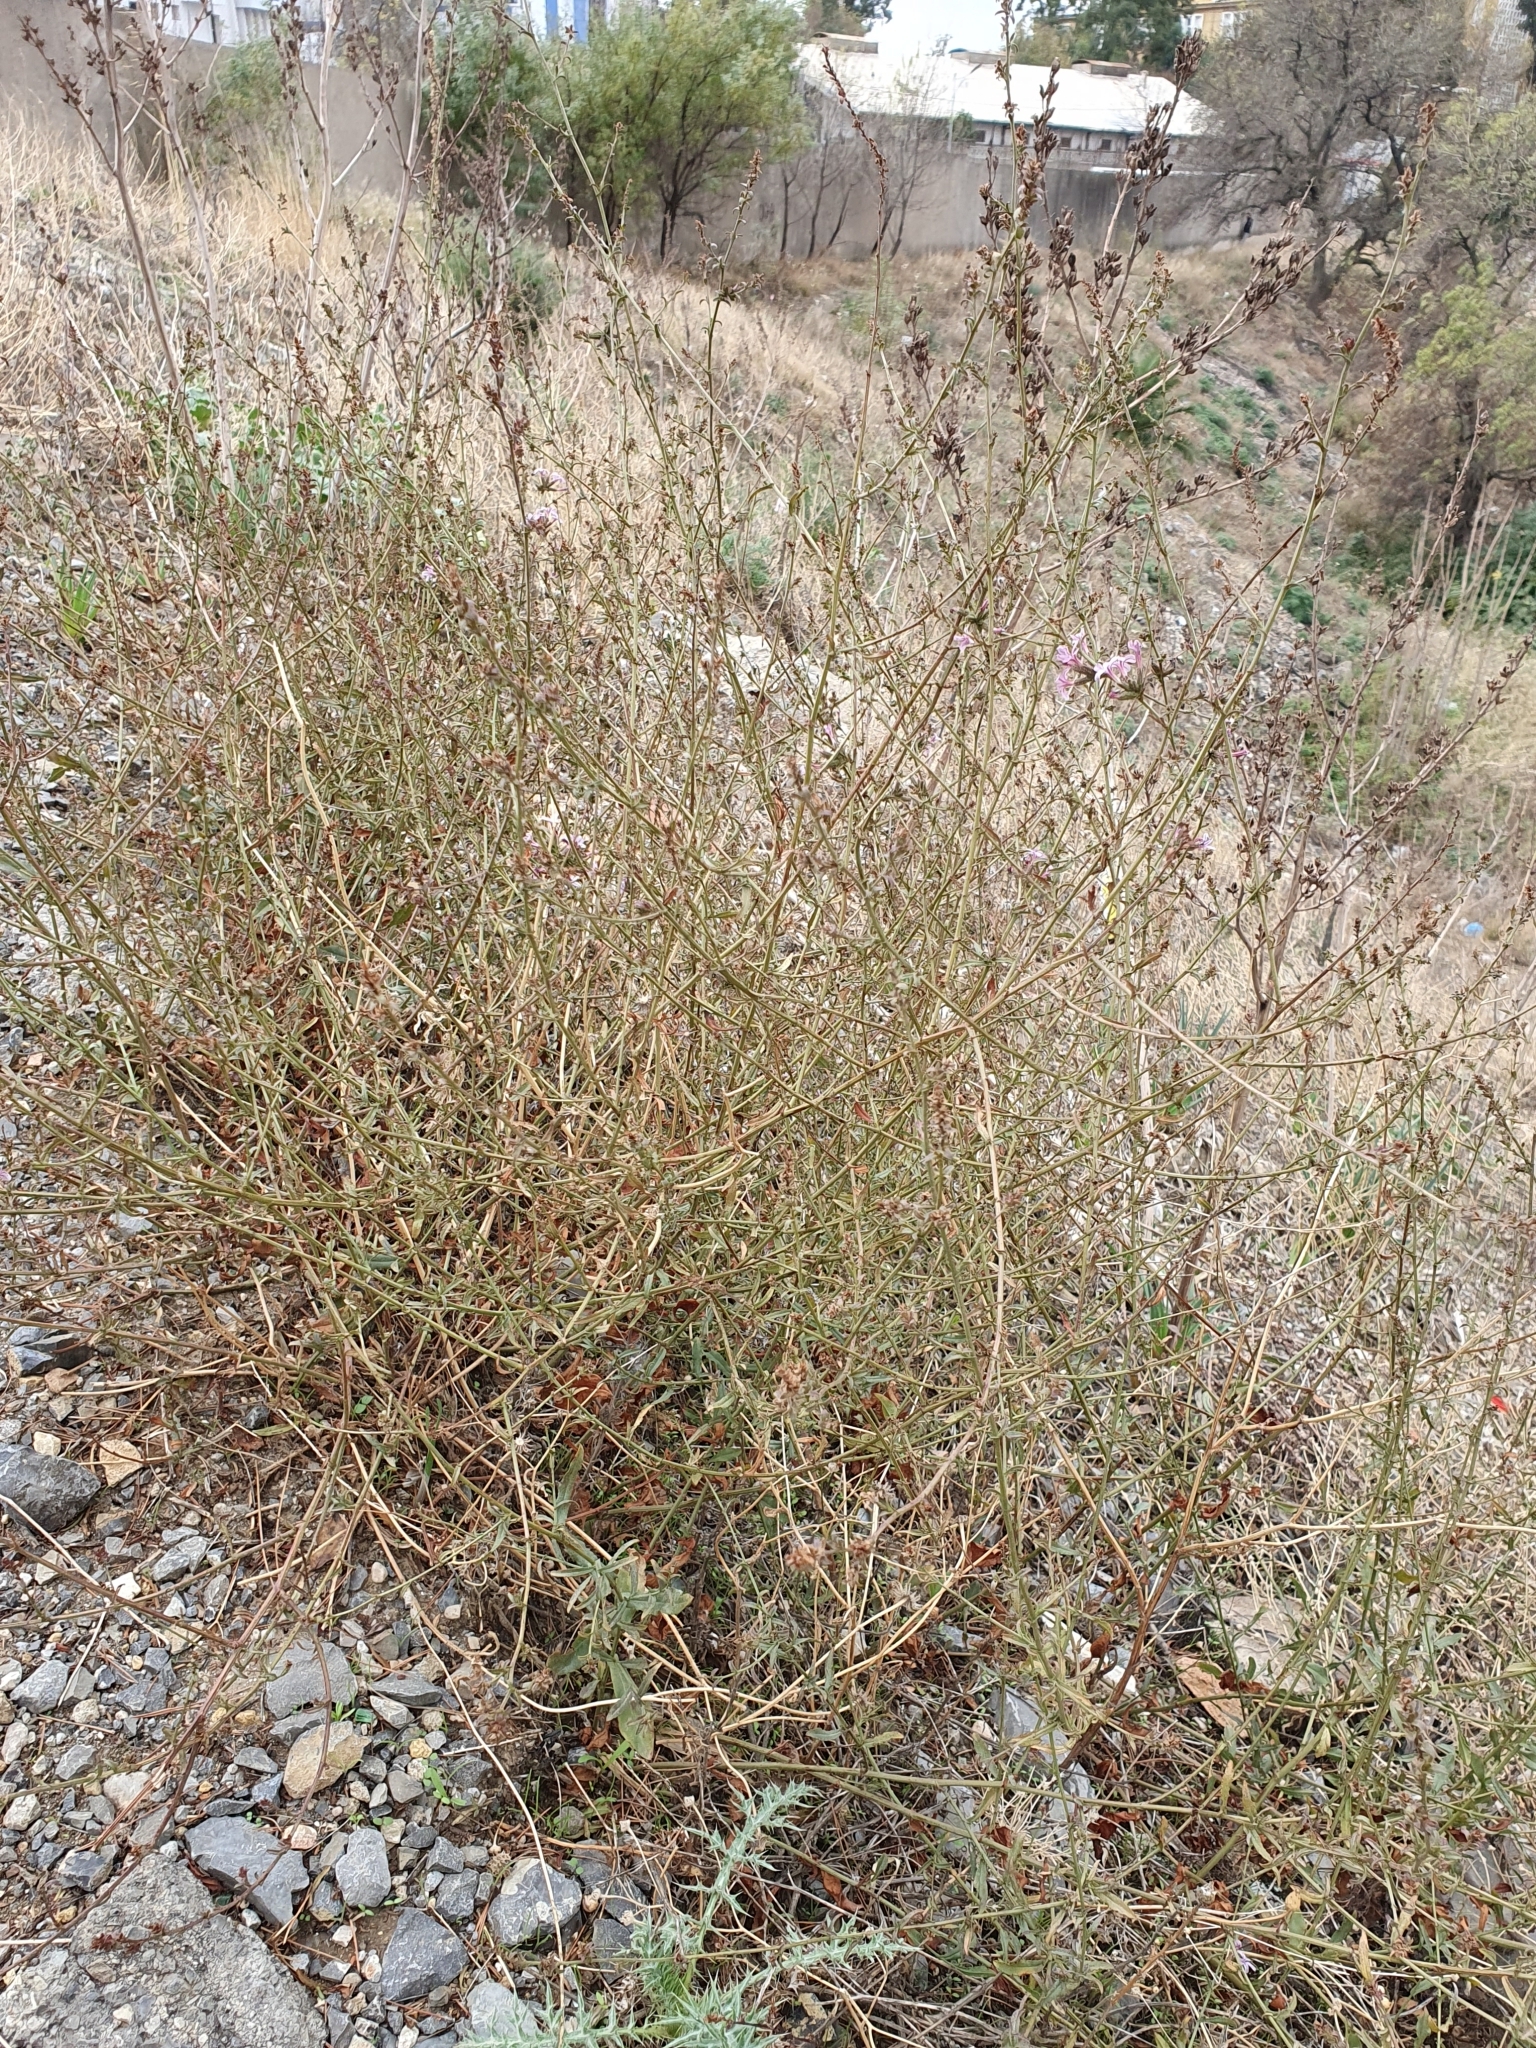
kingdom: Plantae
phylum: Tracheophyta
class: Magnoliopsida
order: Caryophyllales
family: Plumbaginaceae
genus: Plumbago
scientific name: Plumbago europaea
